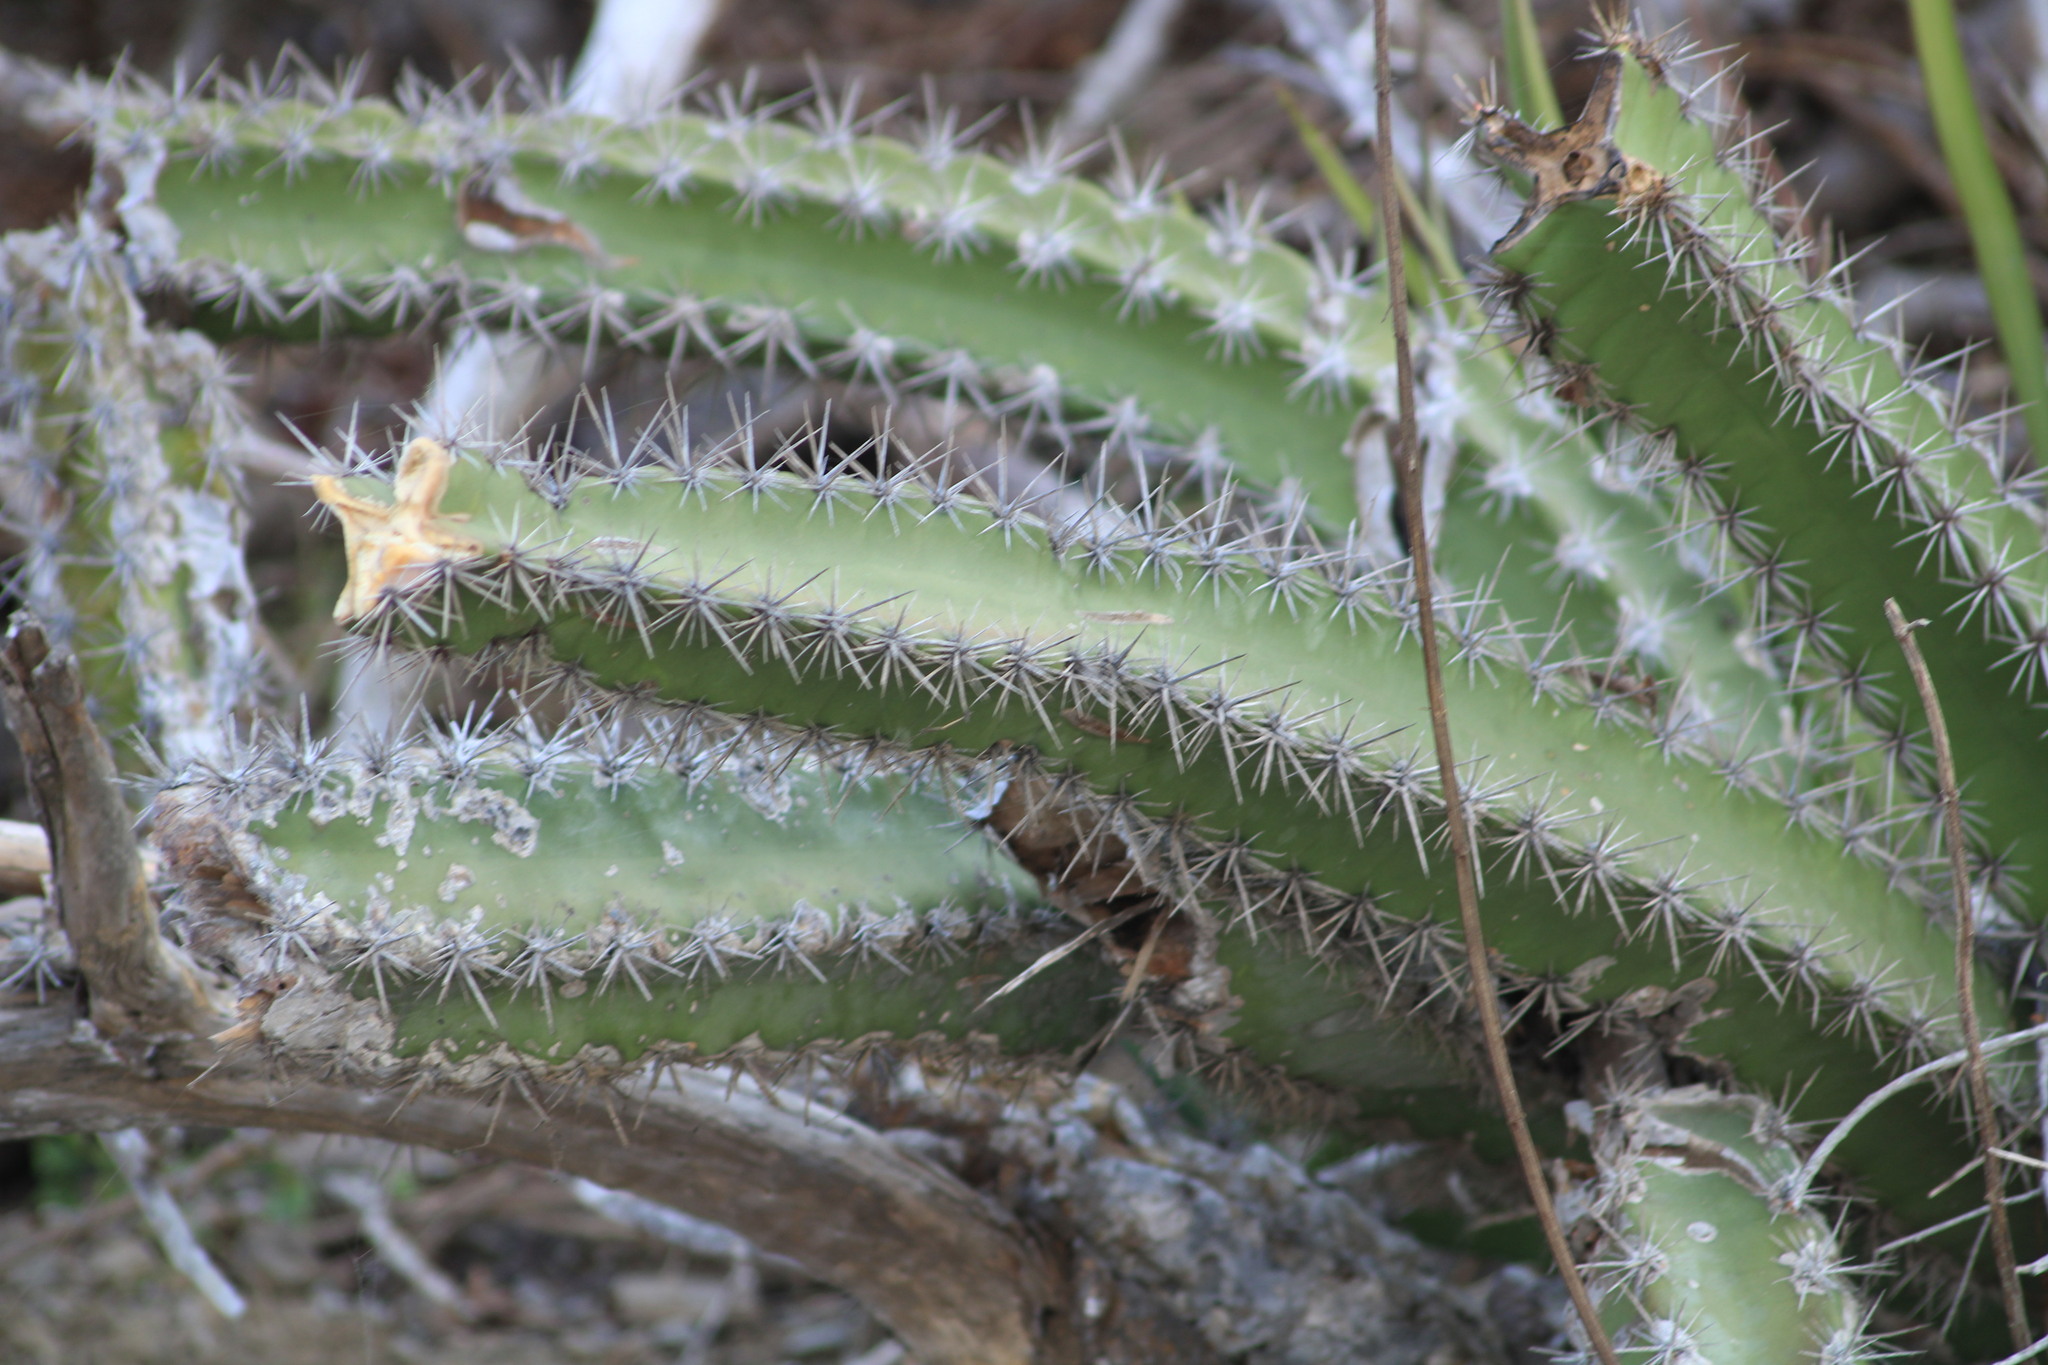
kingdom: Plantae
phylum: Tracheophyta
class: Magnoliopsida
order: Caryophyllales
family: Cactaceae
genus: Stenocereus
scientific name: Stenocereus standleyi
